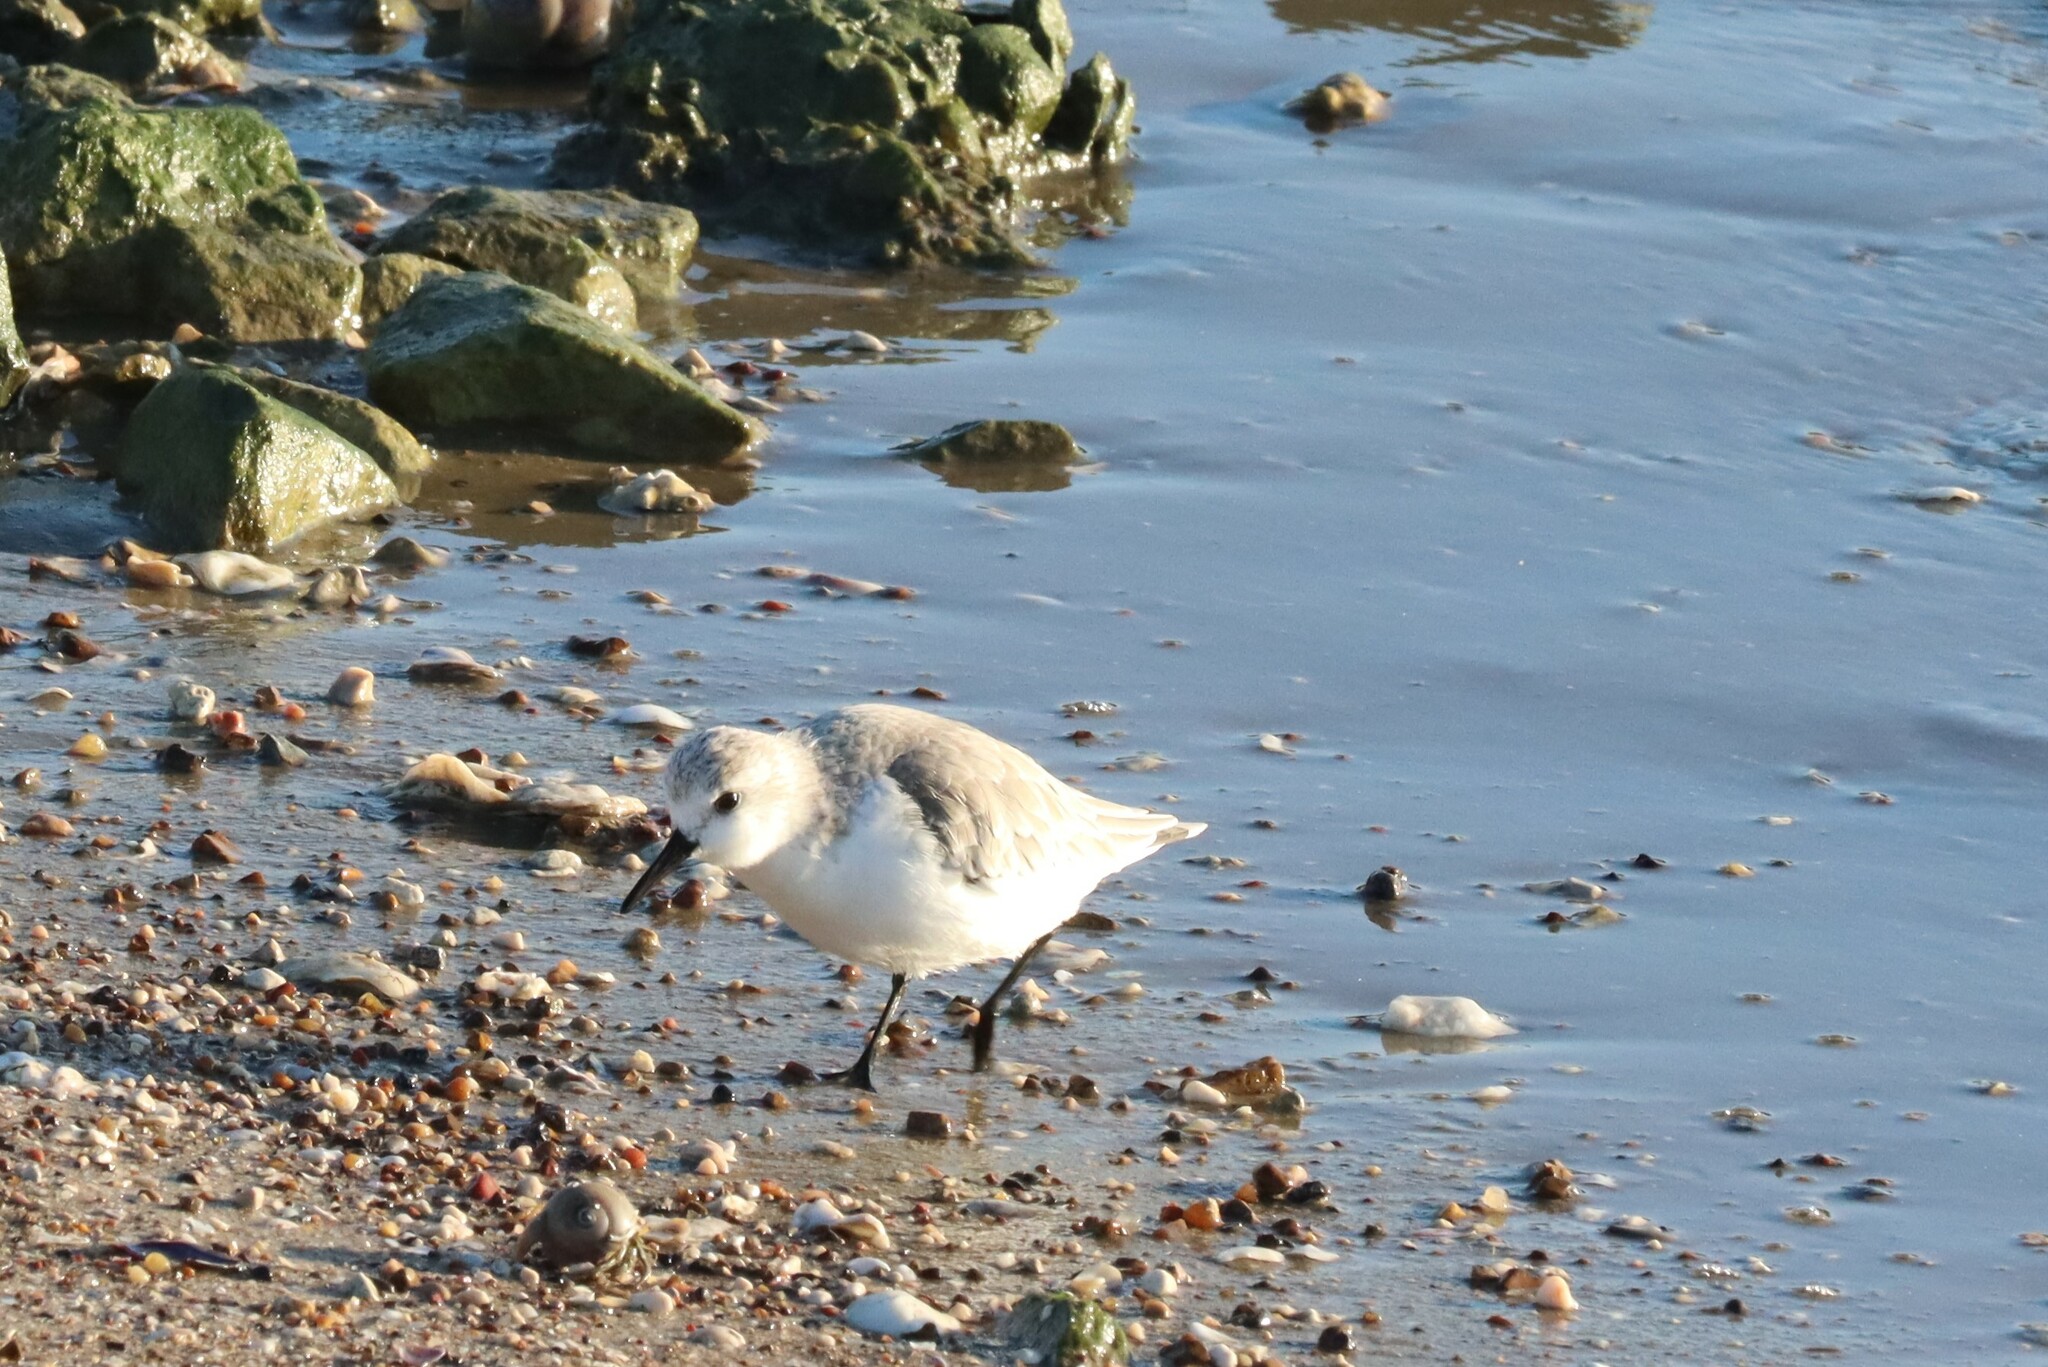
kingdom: Animalia
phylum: Chordata
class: Aves
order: Charadriiformes
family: Scolopacidae
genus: Calidris
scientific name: Calidris alba
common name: Sanderling
